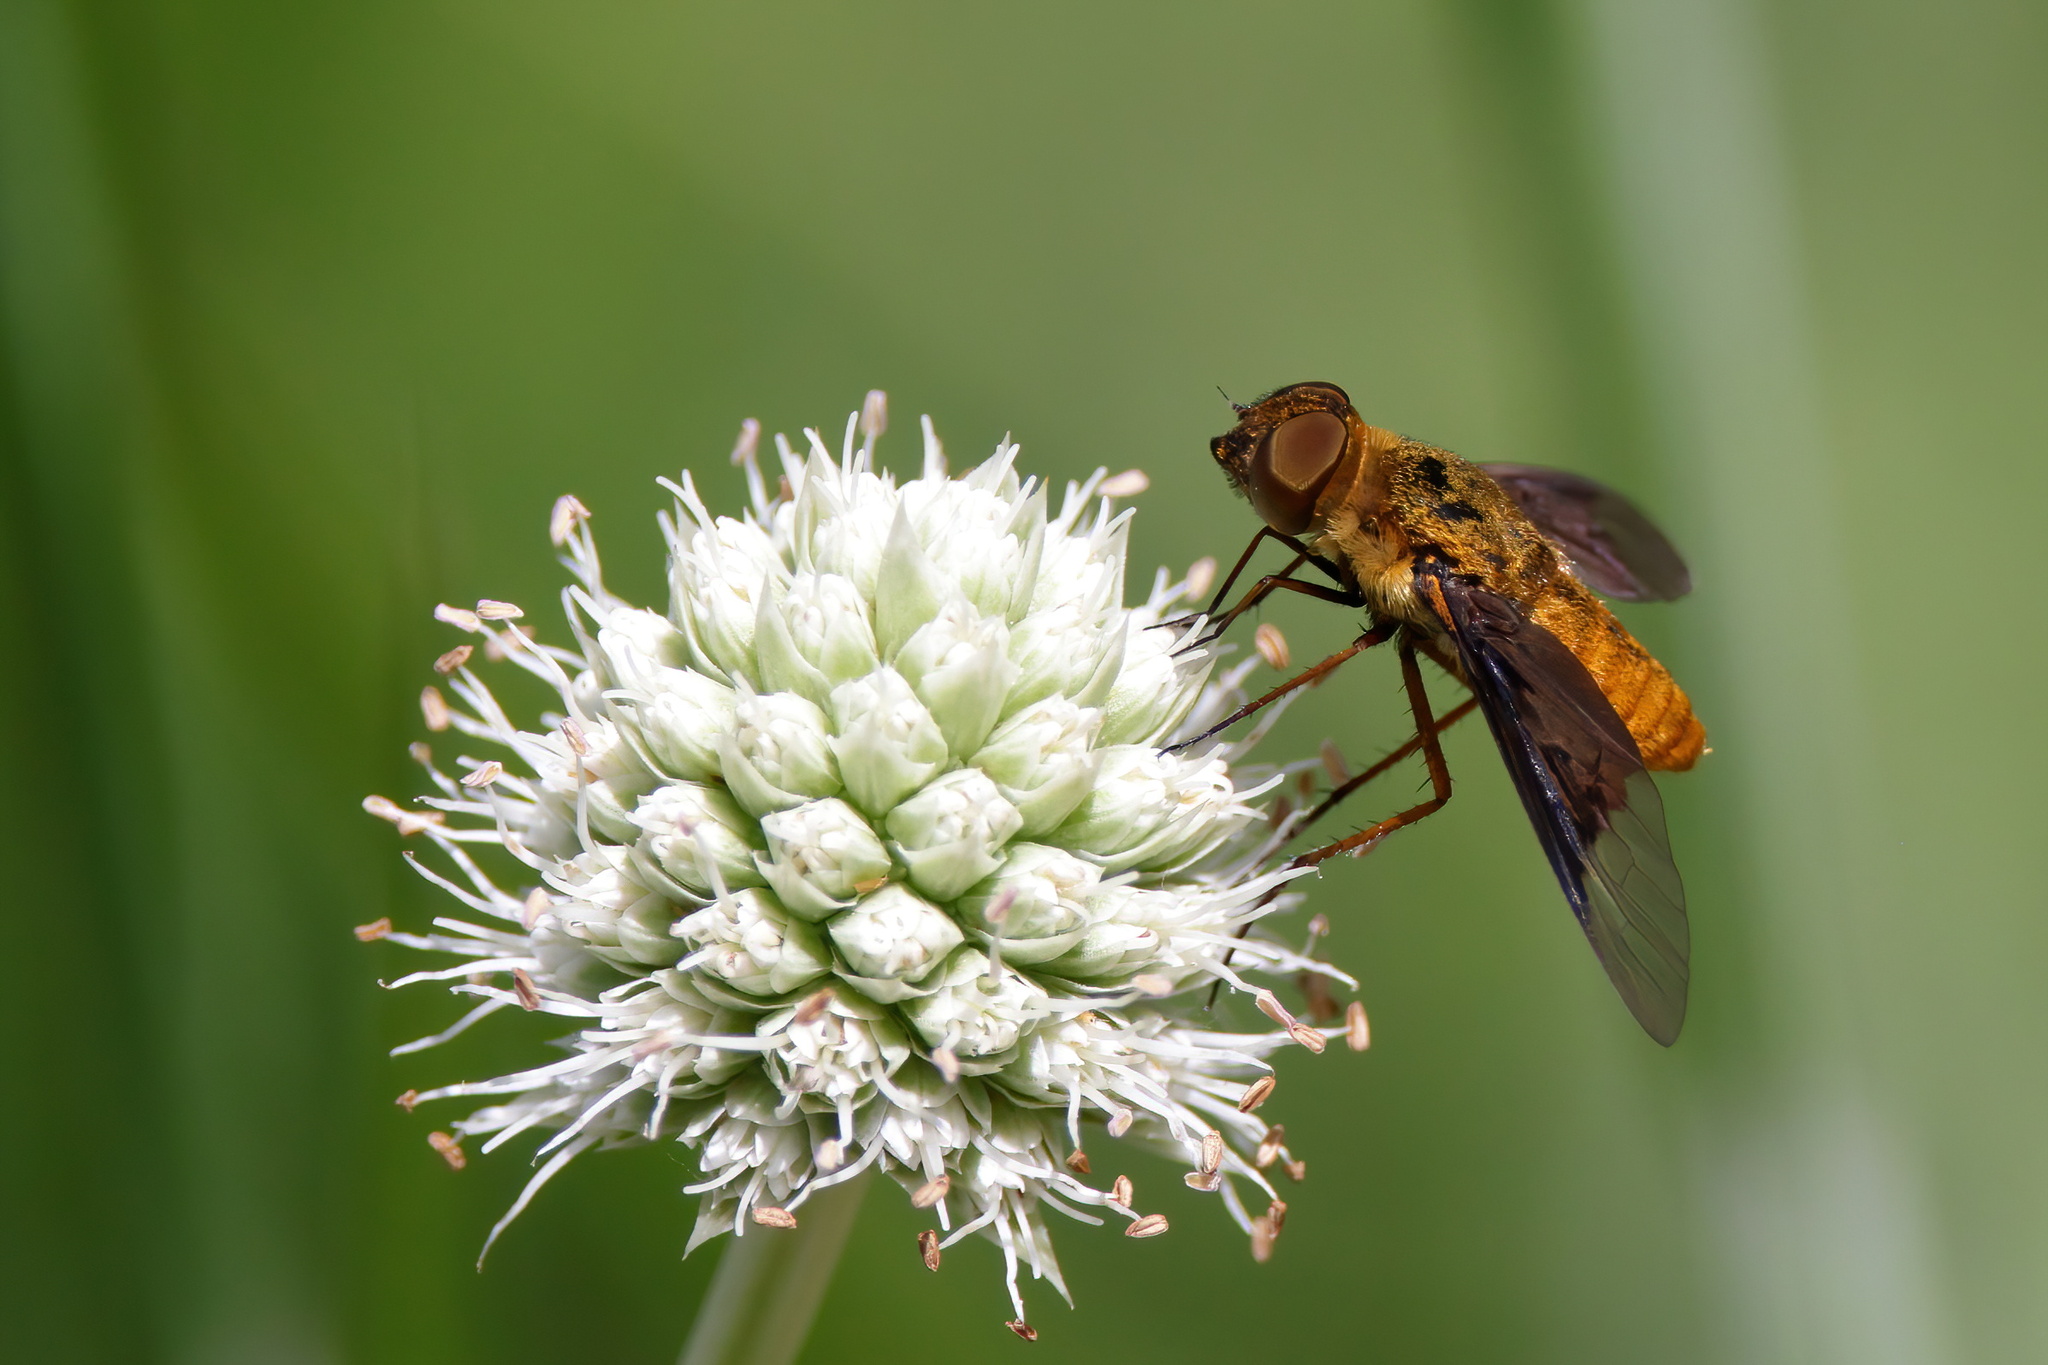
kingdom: Animalia
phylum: Arthropoda
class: Insecta
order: Diptera
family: Bombyliidae
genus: Chrysanthrax
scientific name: Chrysanthrax cypris
